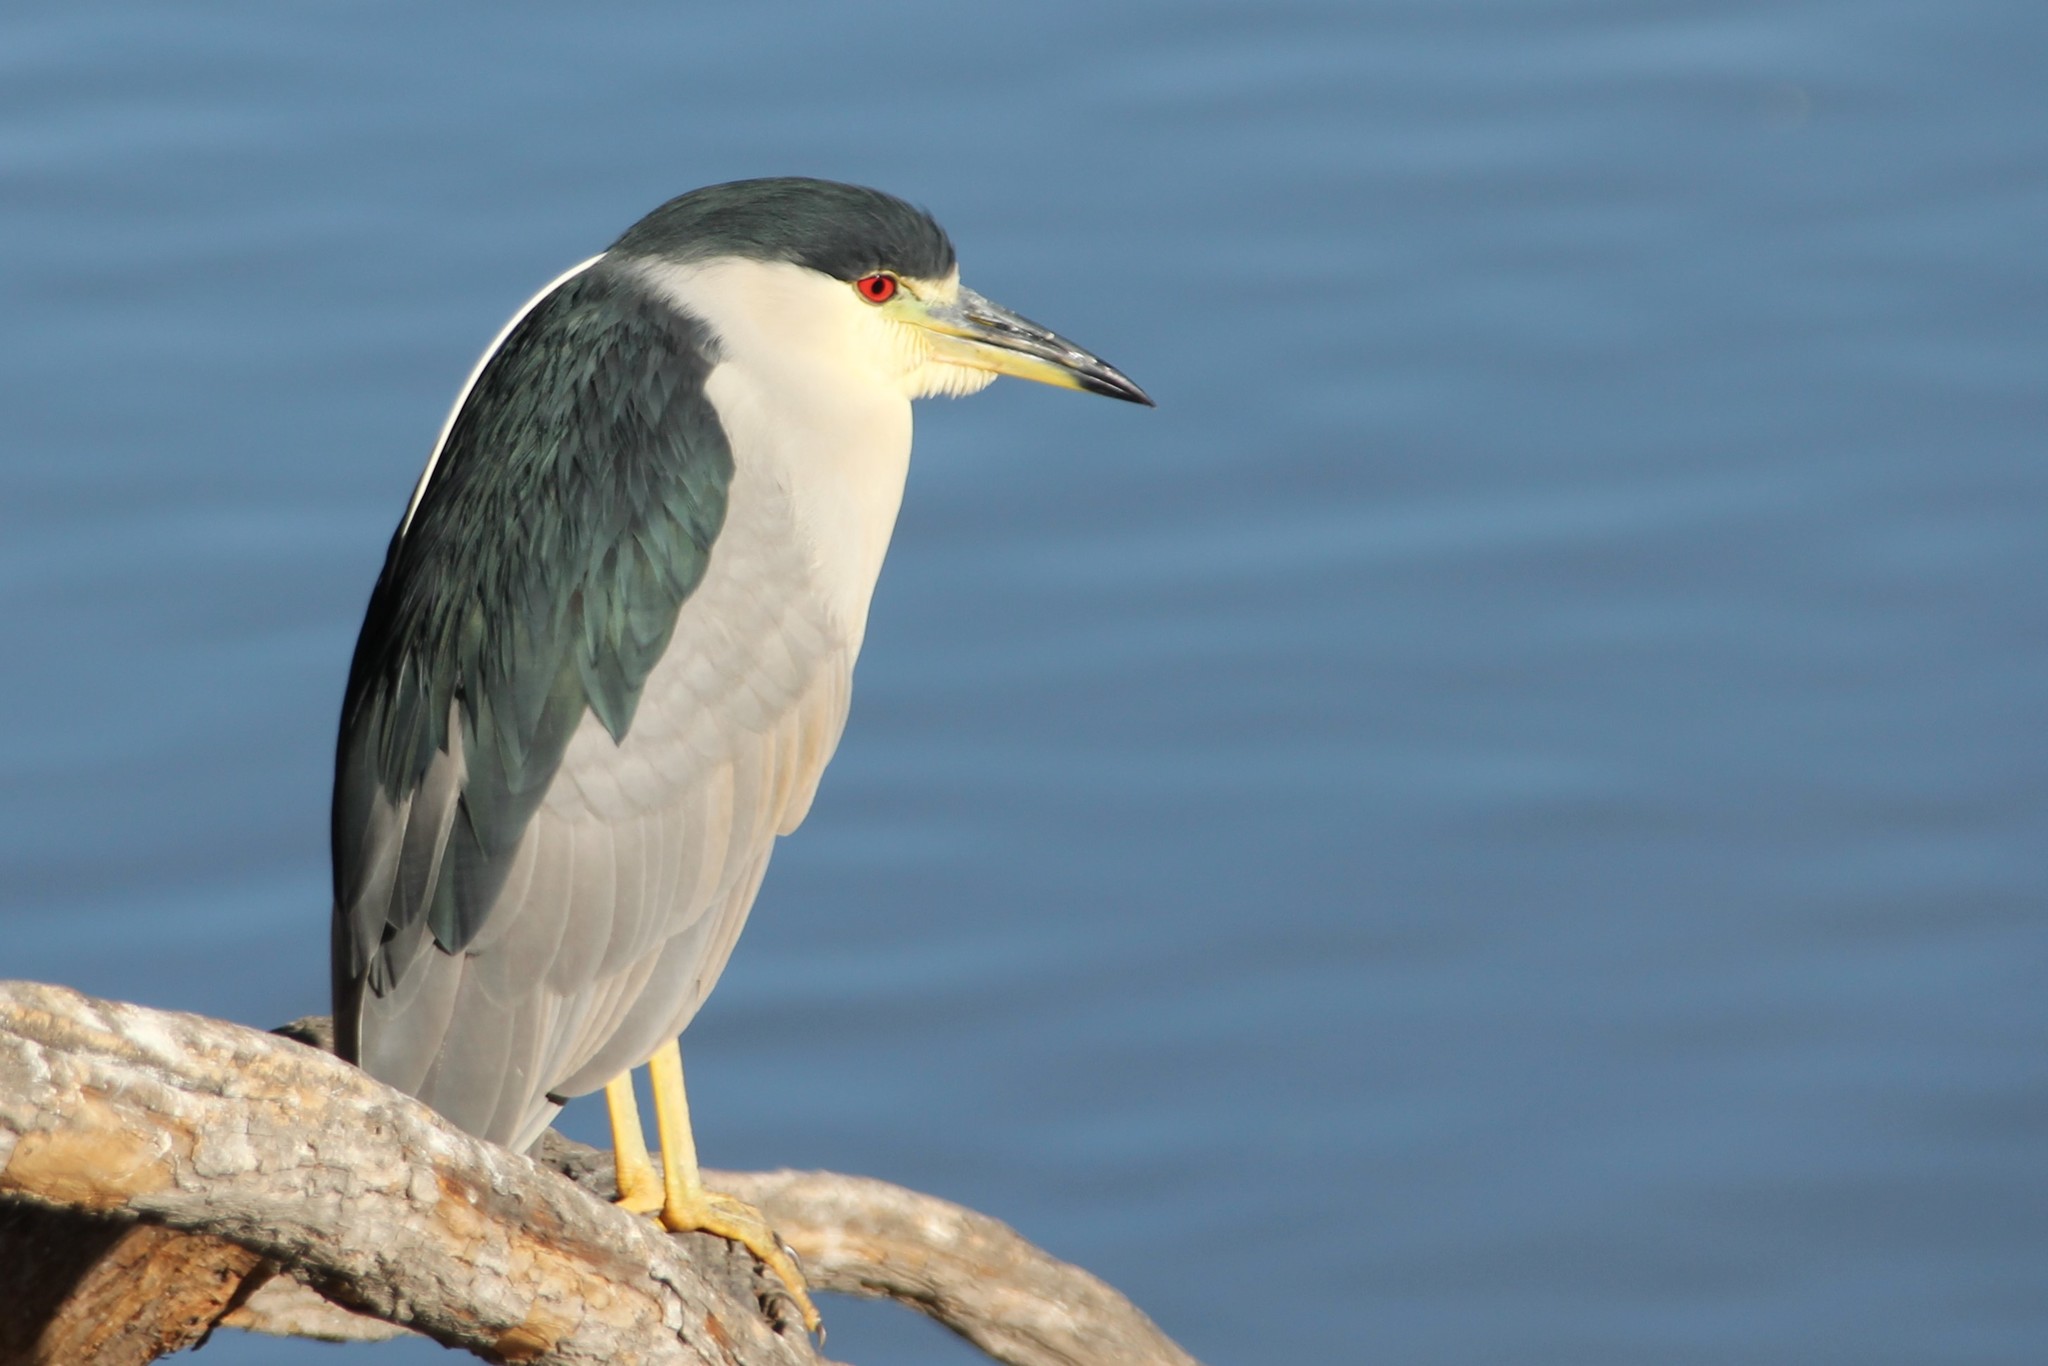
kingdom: Animalia
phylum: Chordata
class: Aves
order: Pelecaniformes
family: Ardeidae
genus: Nycticorax
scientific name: Nycticorax nycticorax
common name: Black-crowned night heron
